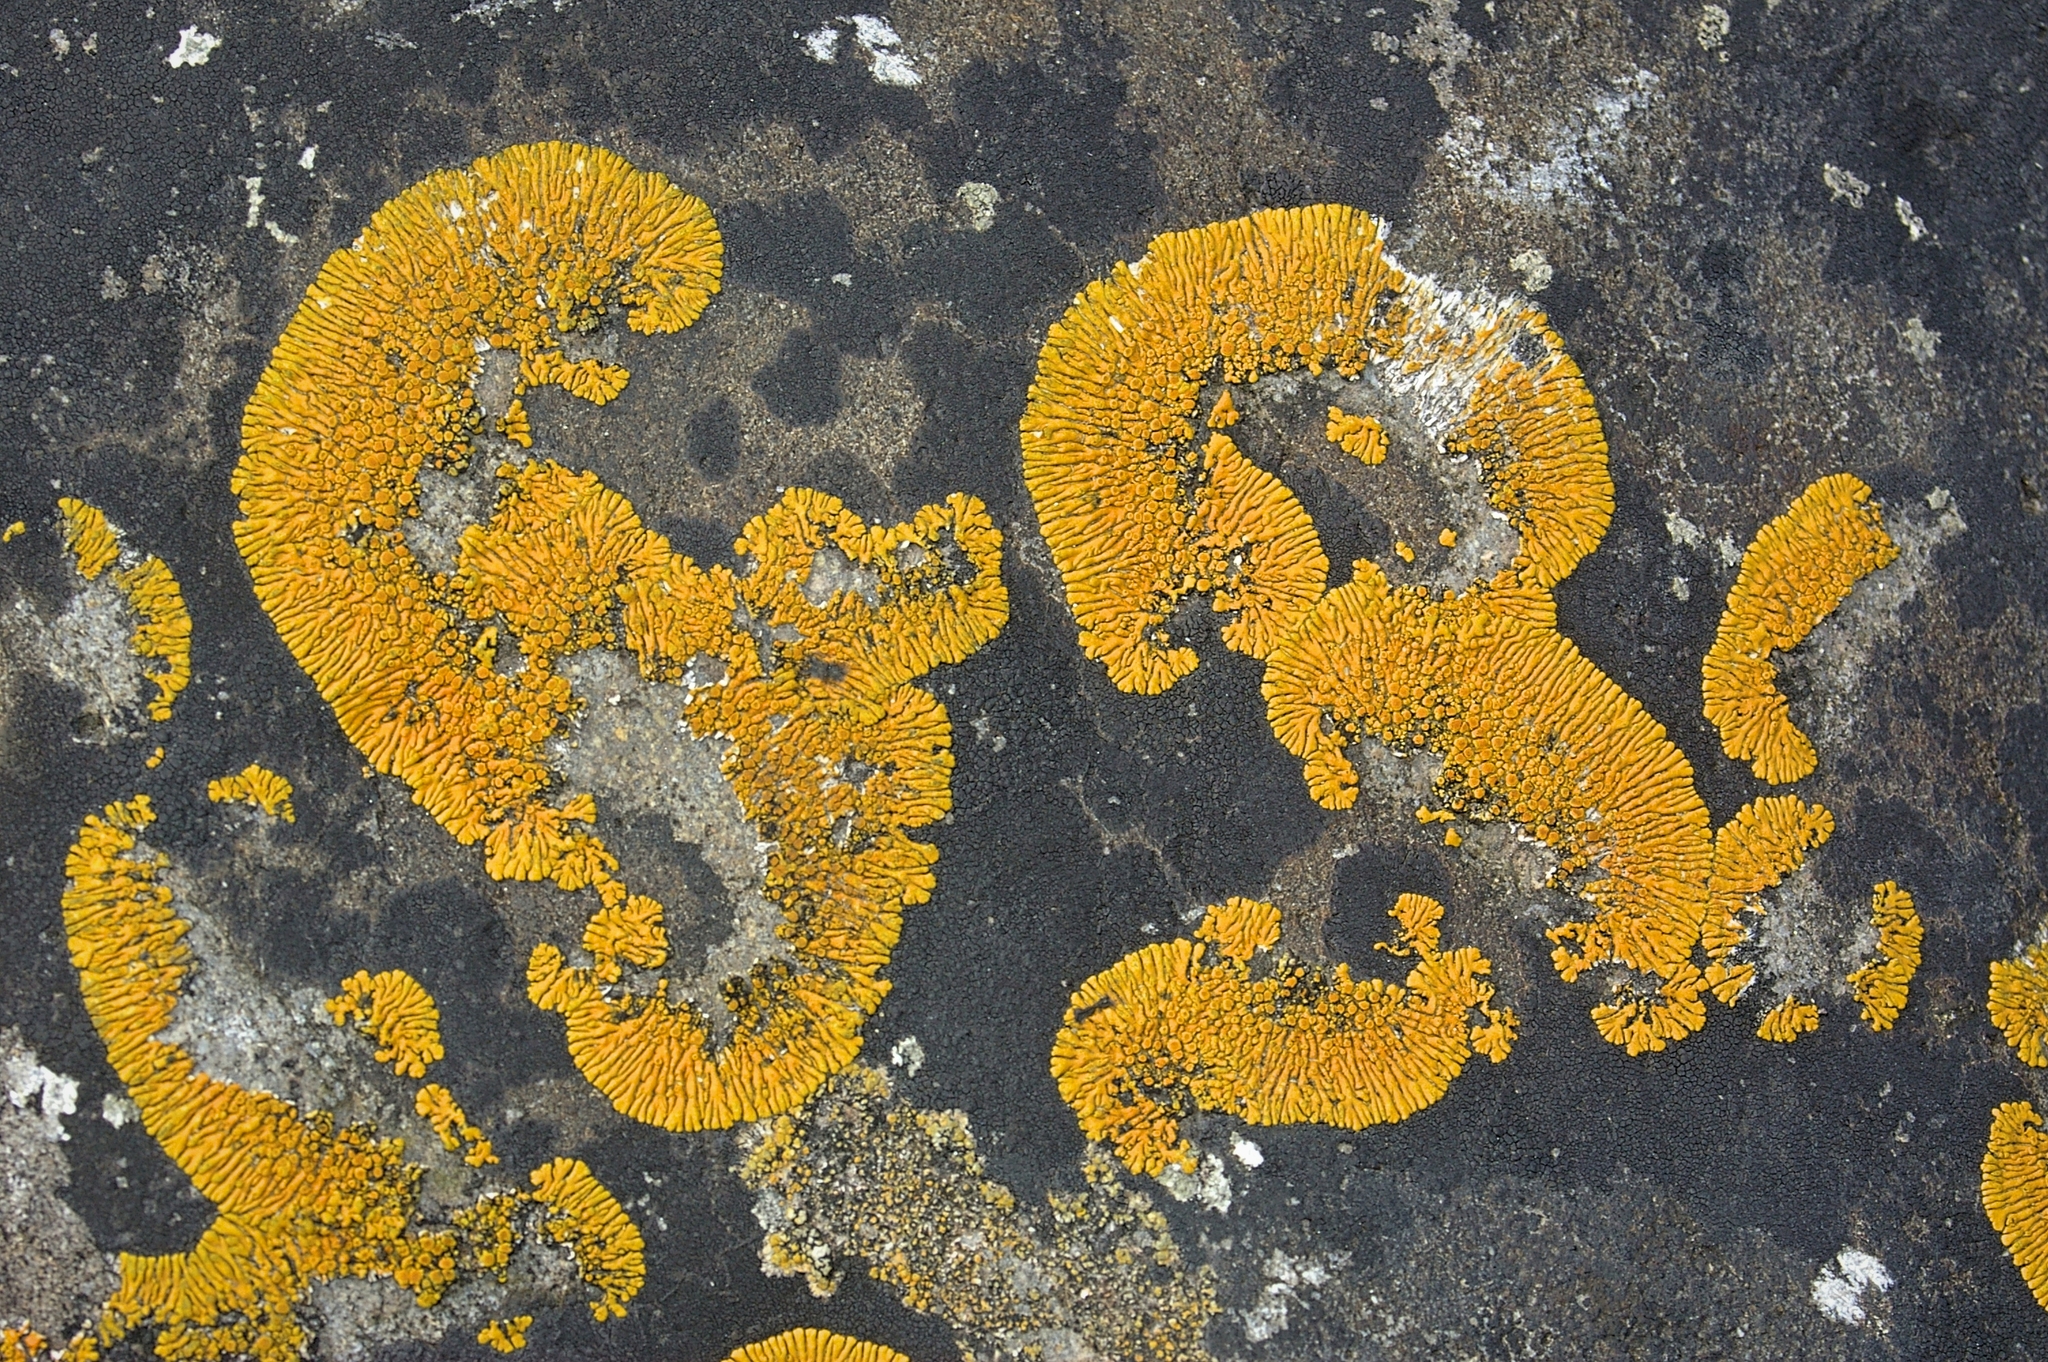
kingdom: Fungi
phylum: Ascomycota
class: Lecanoromycetes
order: Teloschistales
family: Teloschistaceae
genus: Variospora
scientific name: Variospora thallincola
